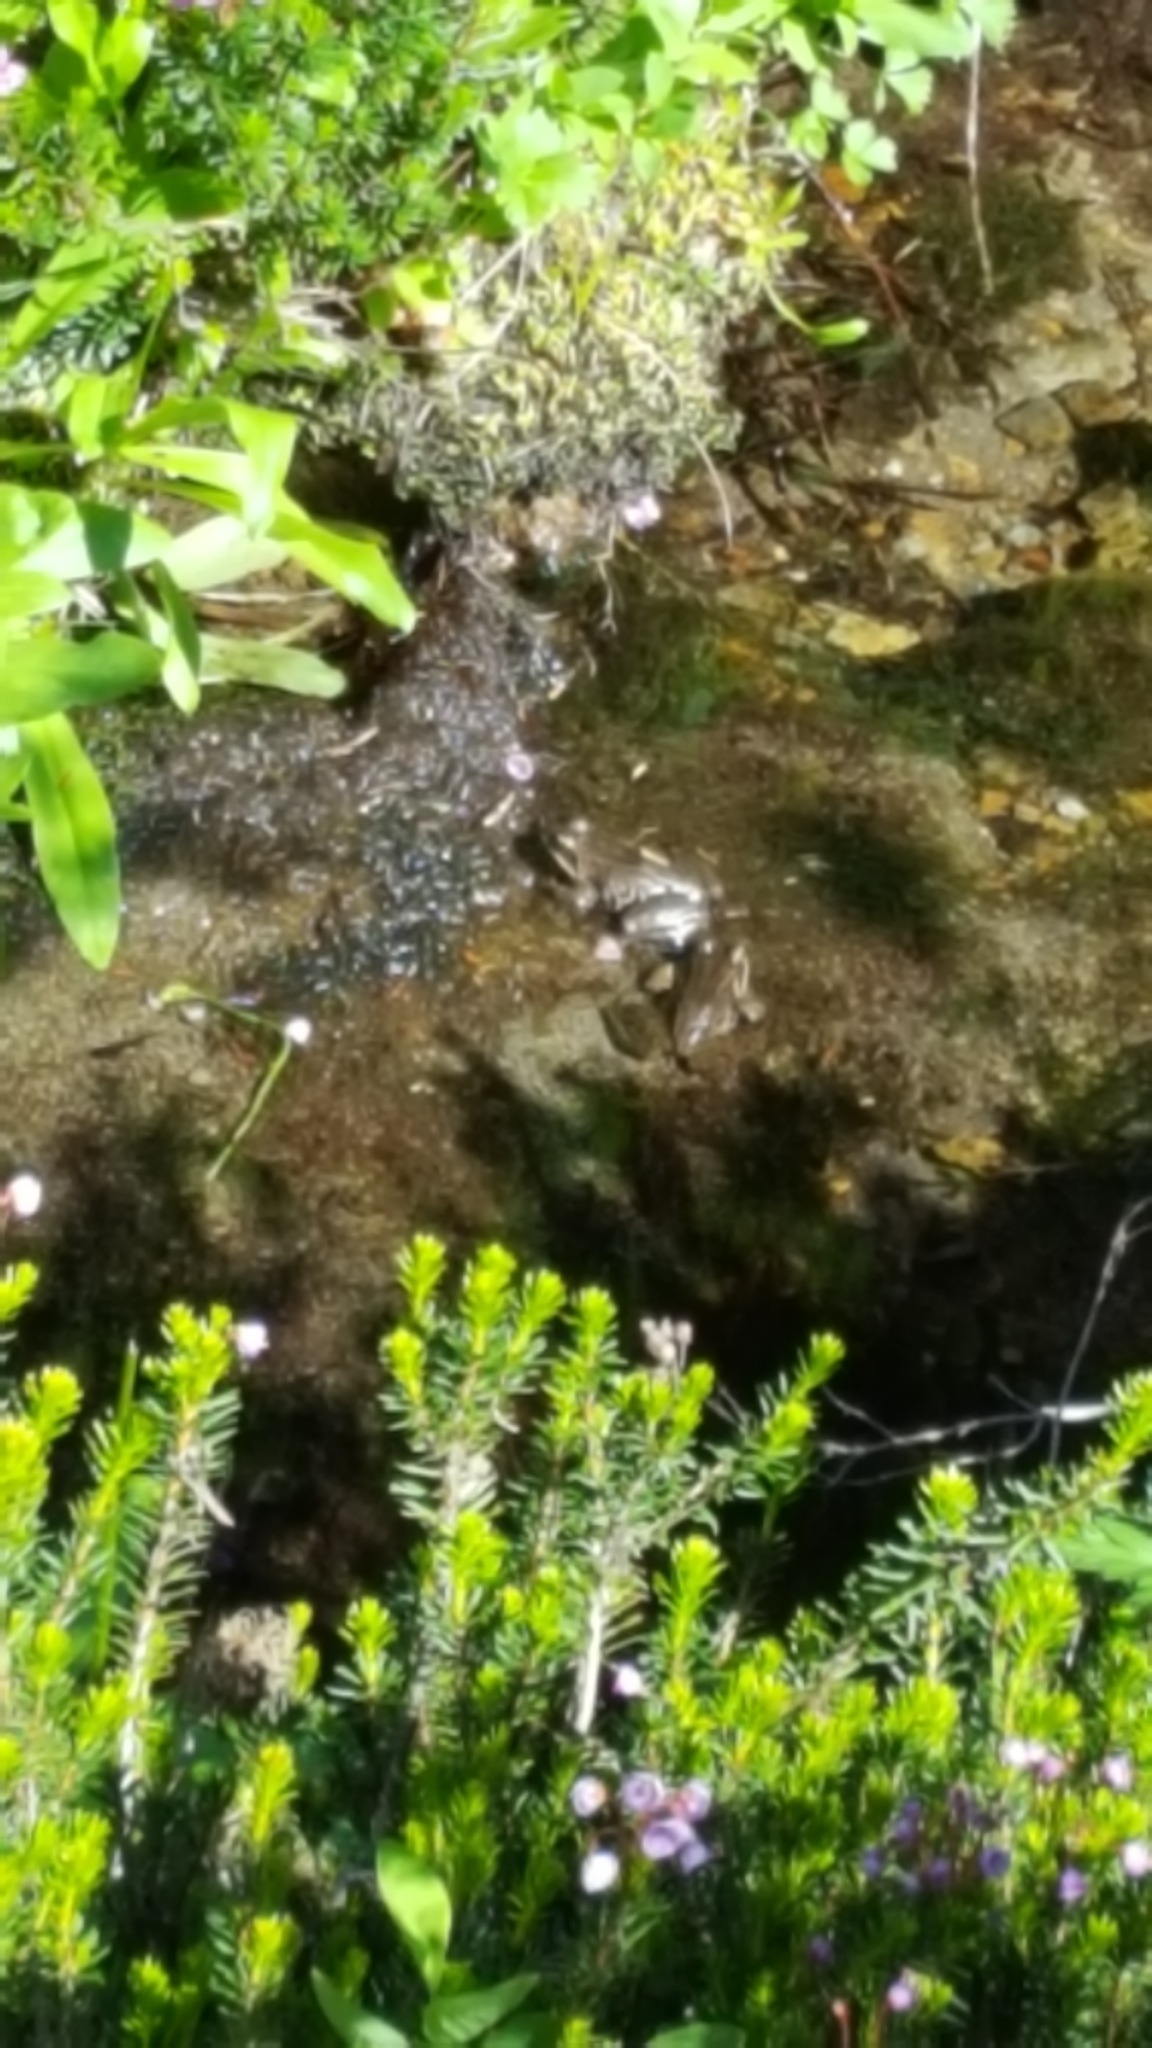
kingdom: Animalia
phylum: Chordata
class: Amphibia
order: Anura
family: Ranidae
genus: Rana
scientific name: Rana cascadae
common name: Cascades frog
